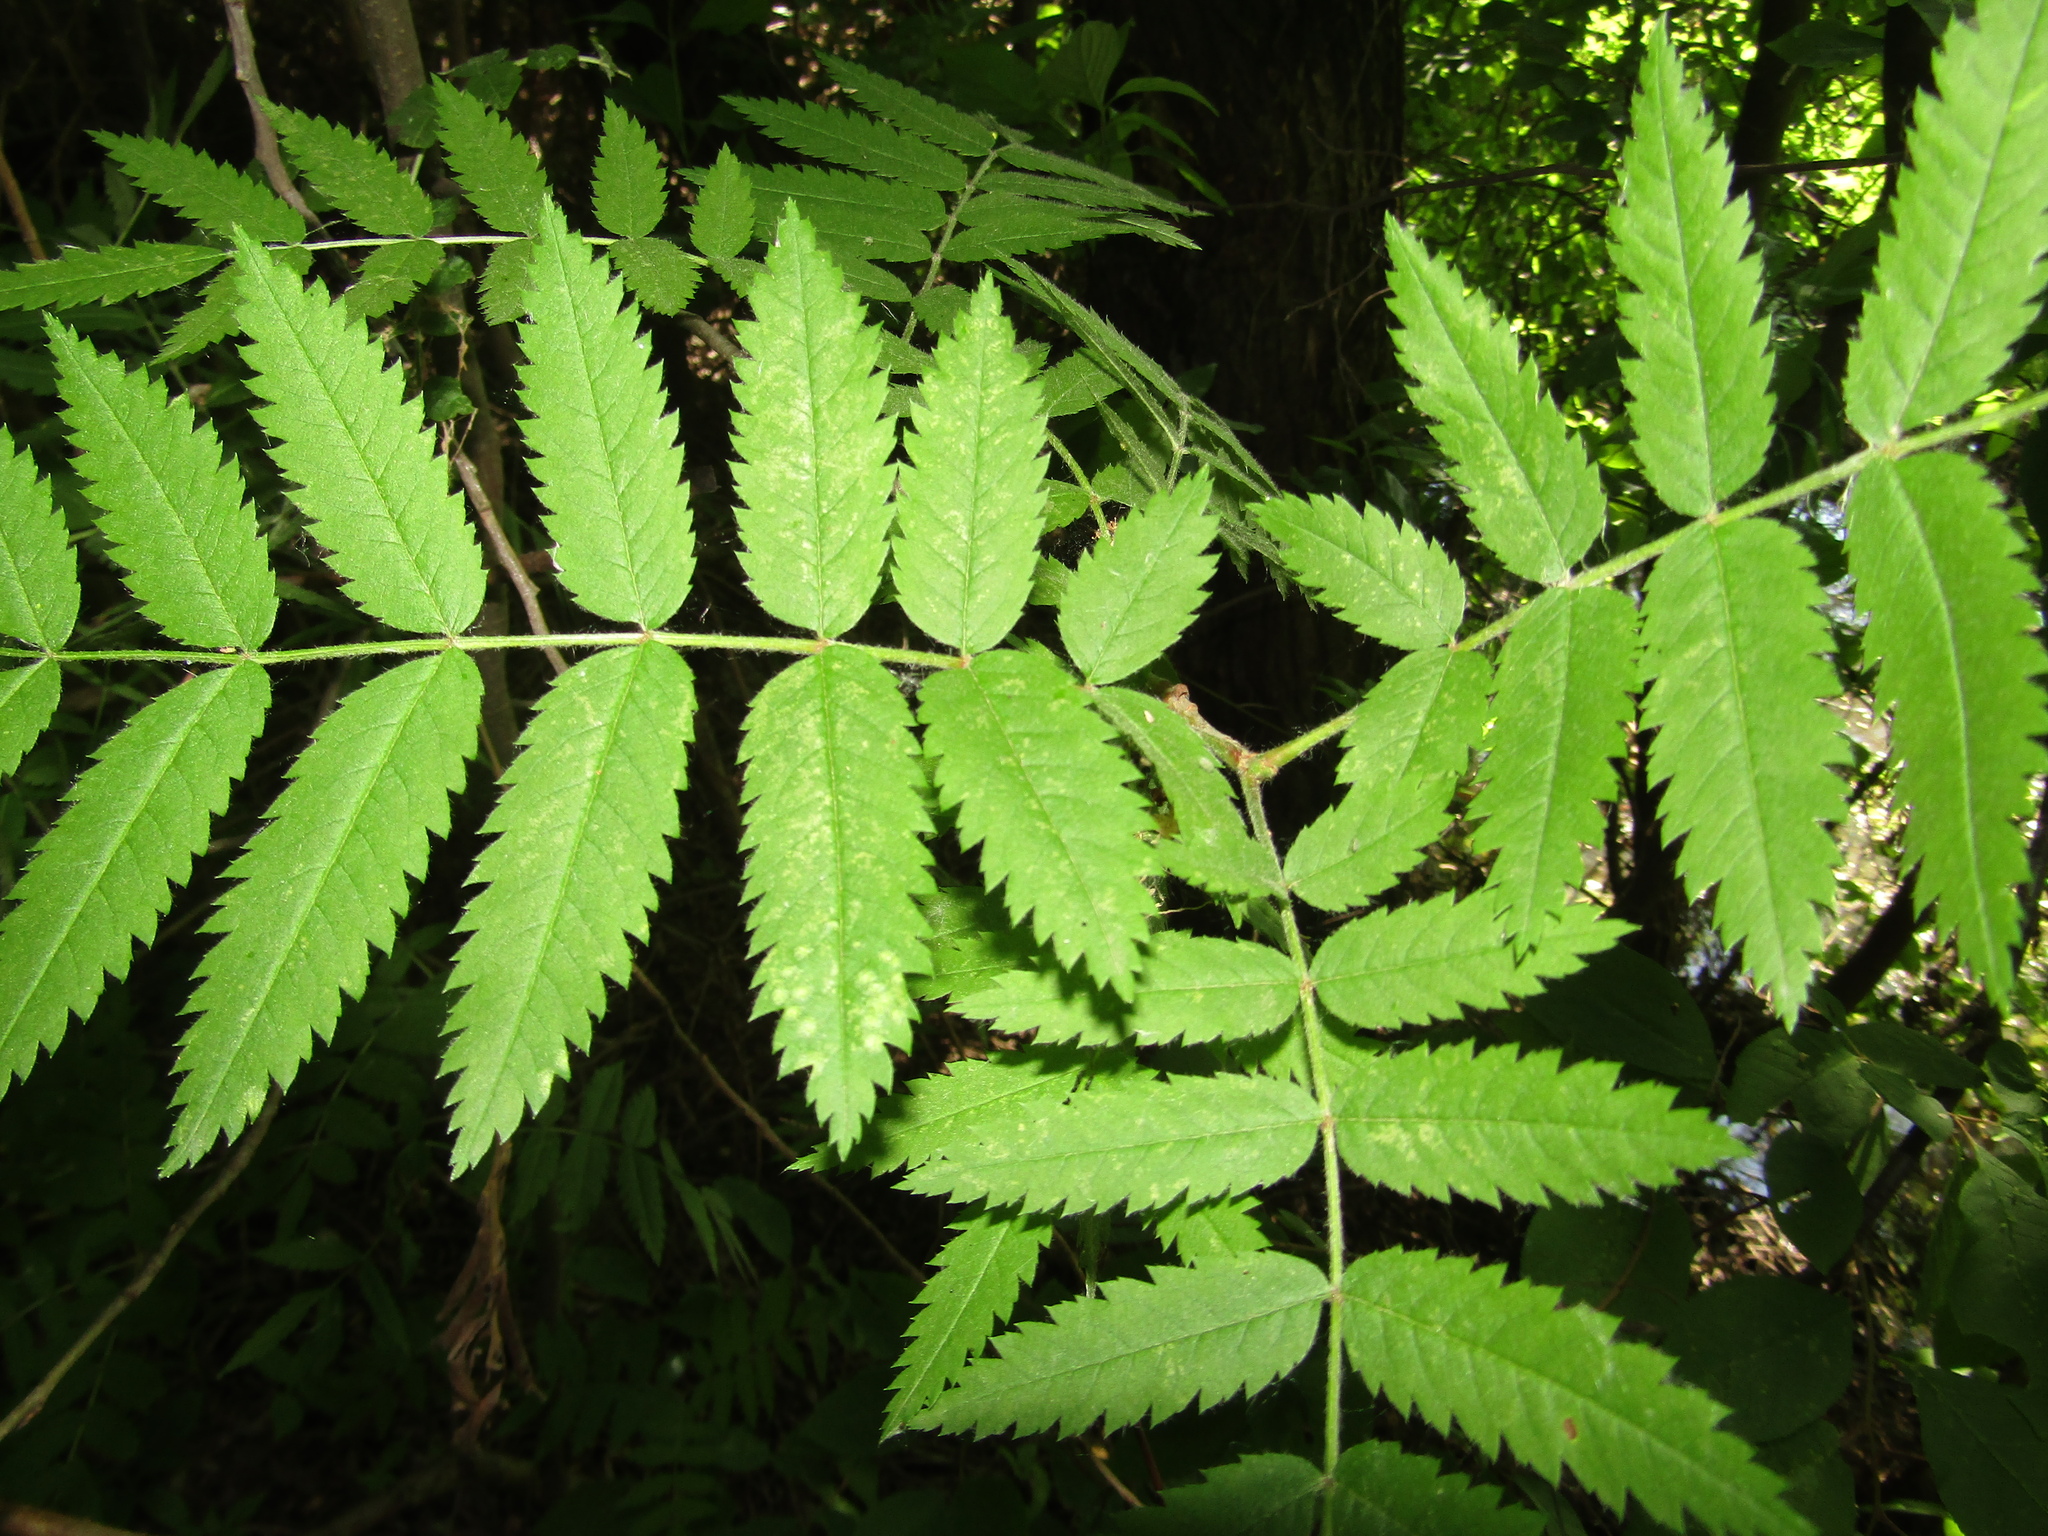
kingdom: Plantae
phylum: Tracheophyta
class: Magnoliopsida
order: Rosales
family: Rosaceae
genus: Sorbus
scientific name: Sorbus aucuparia
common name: Rowan
